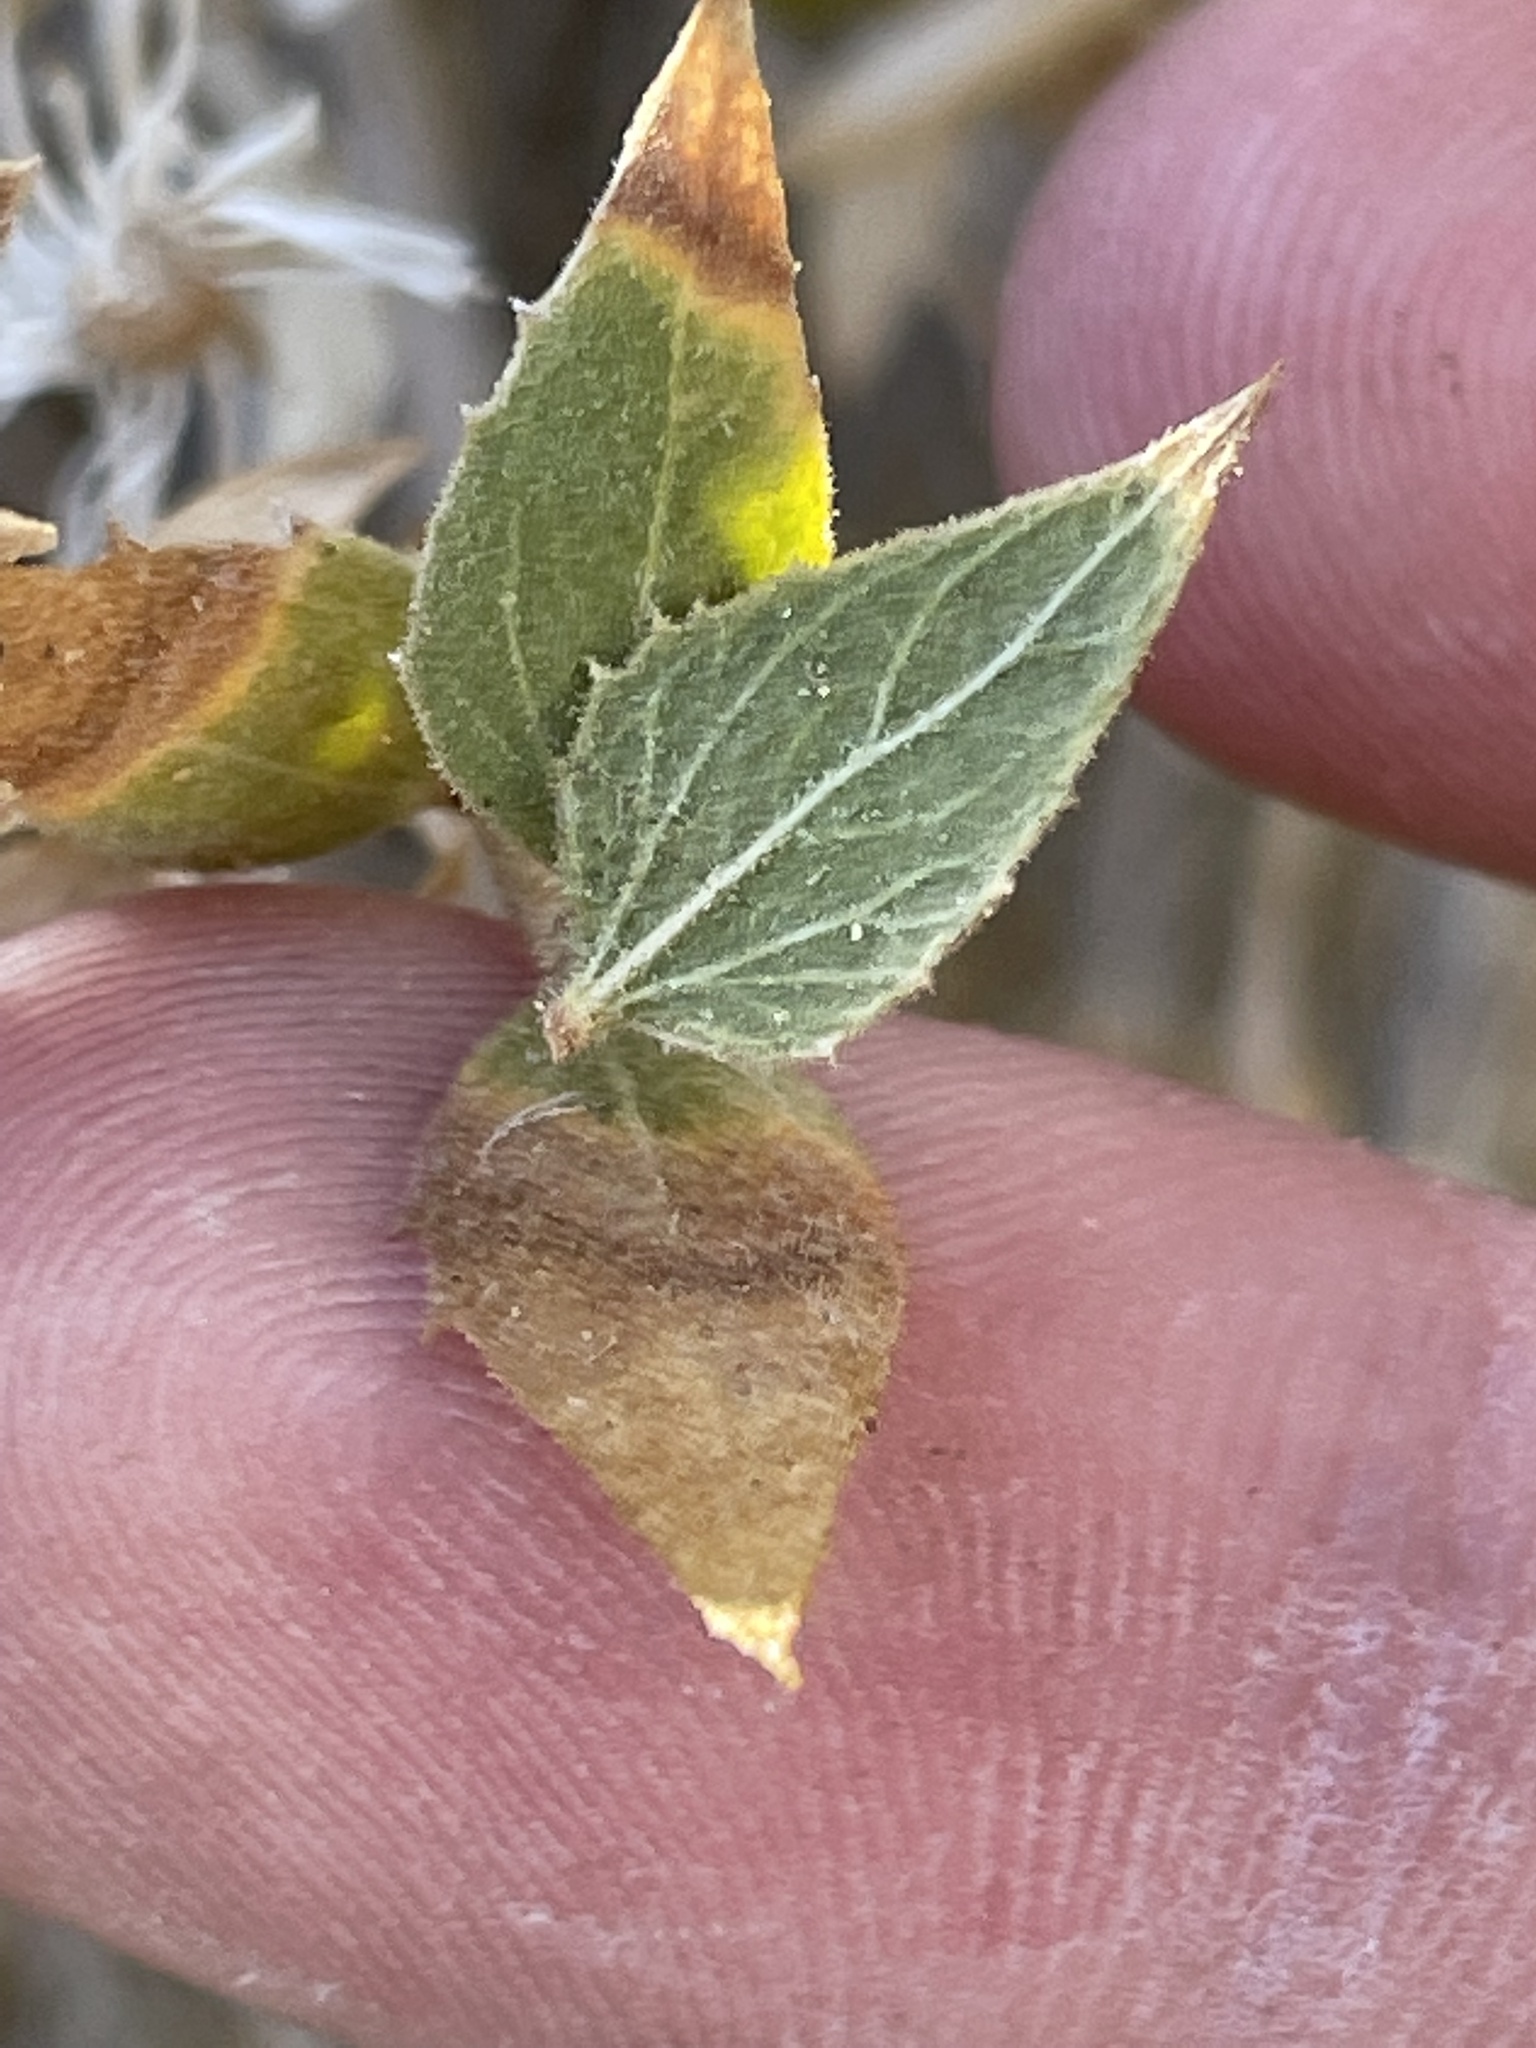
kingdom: Plantae
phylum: Tracheophyta
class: Magnoliopsida
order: Asterales
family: Asteraceae
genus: Brickellia
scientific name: Brickellia atractyloides
